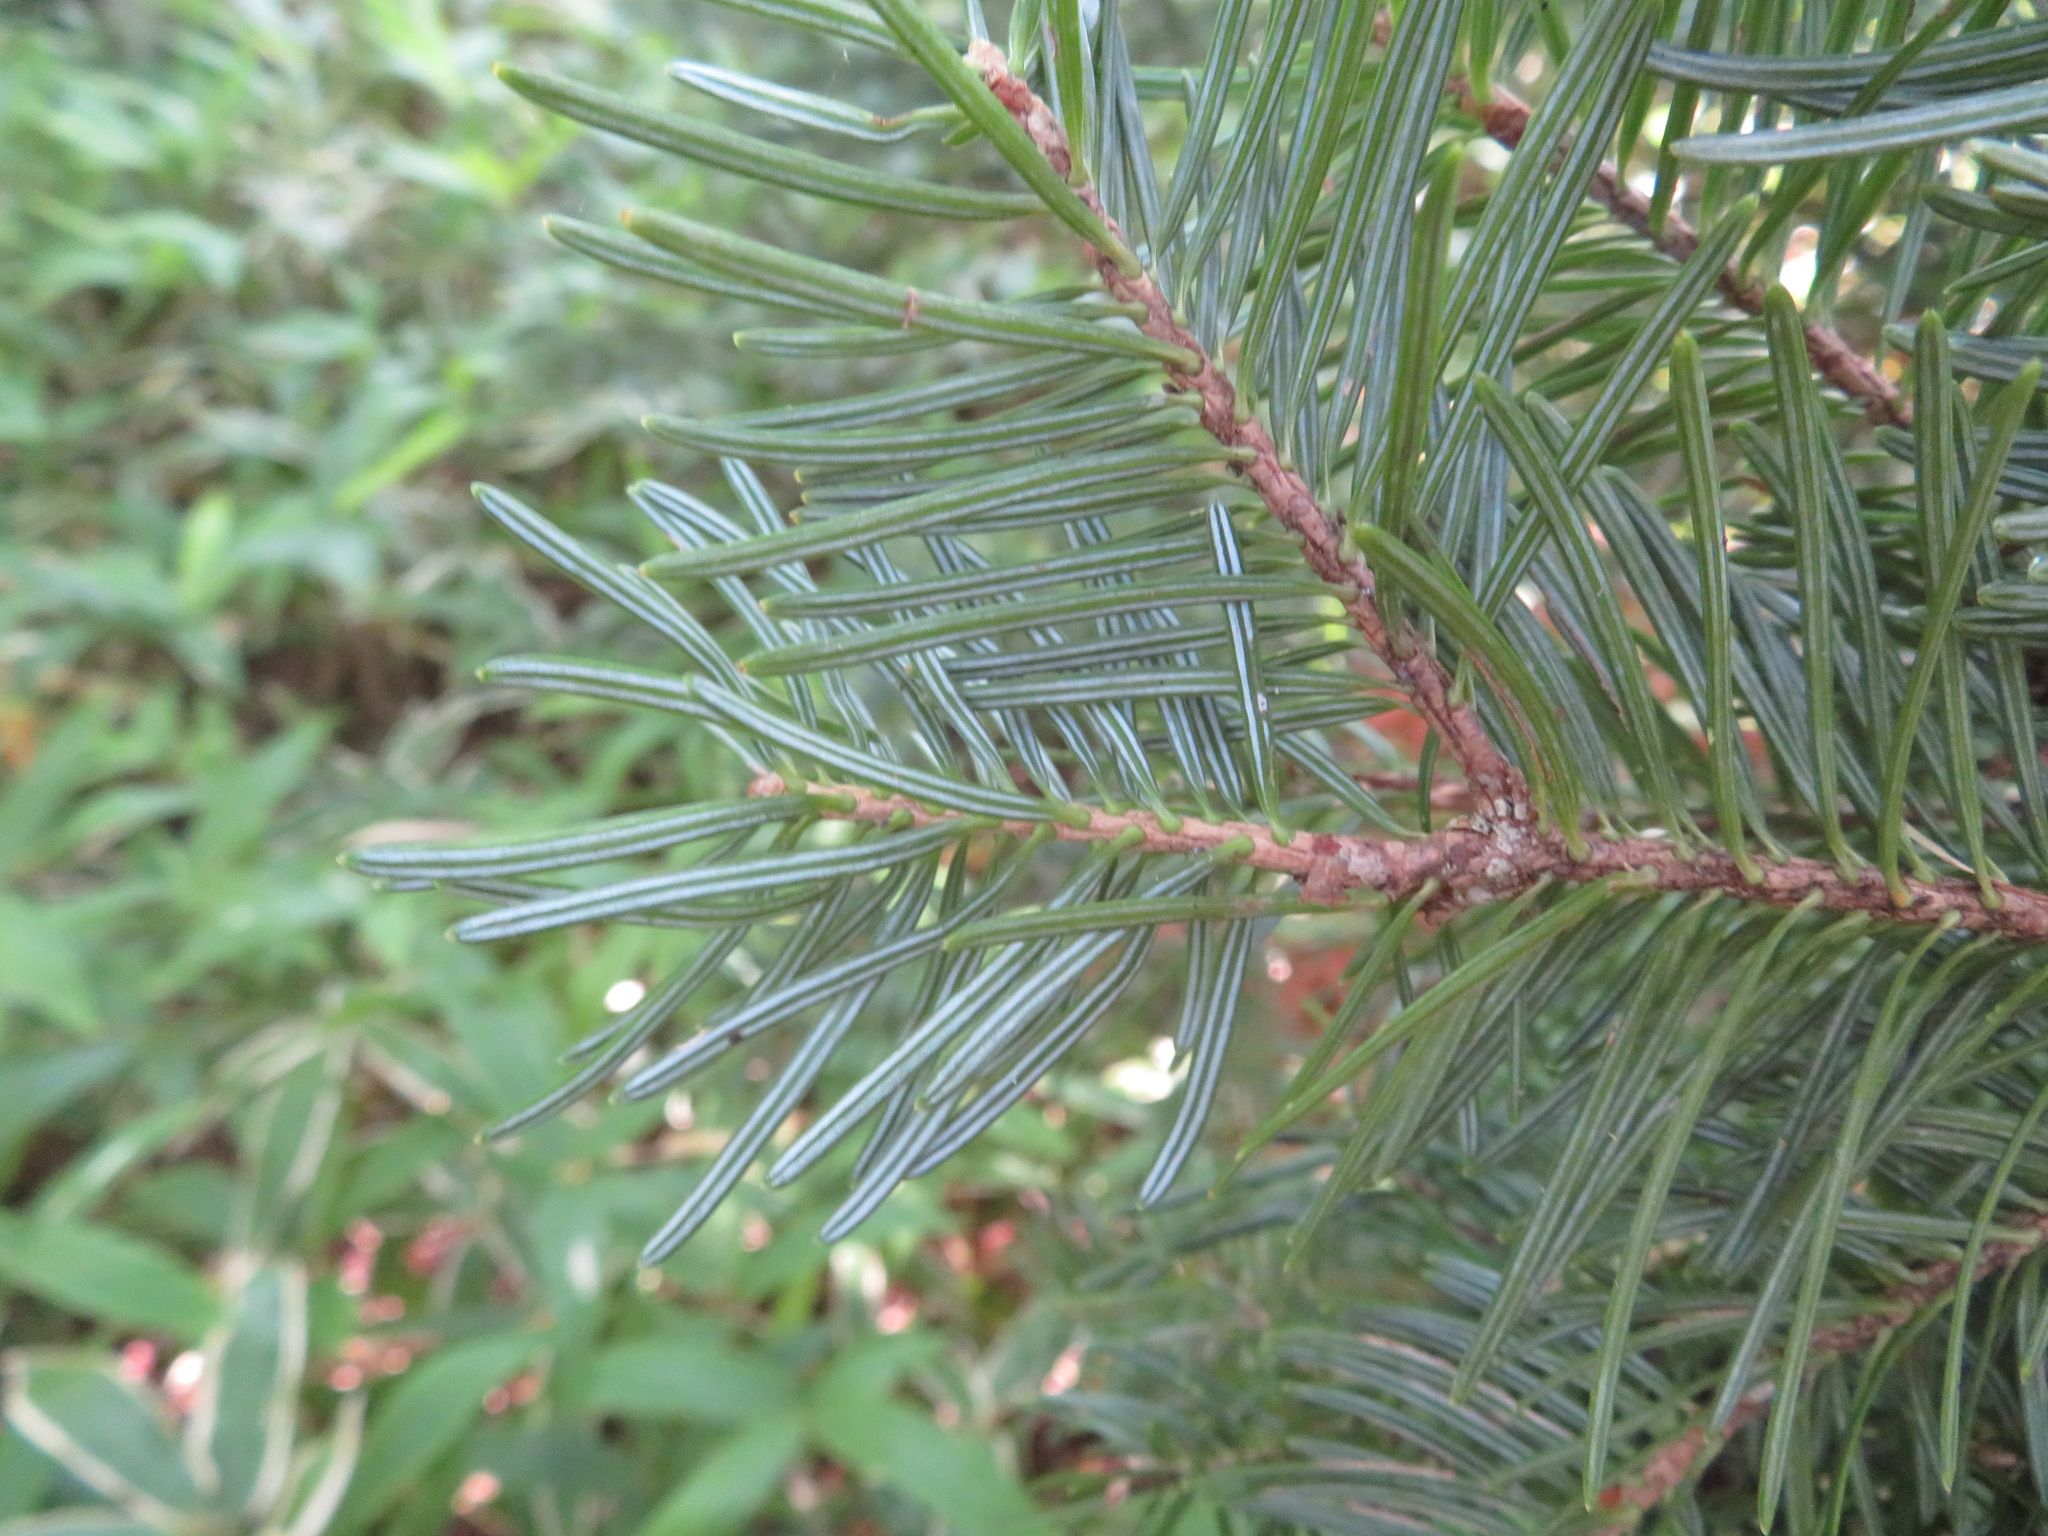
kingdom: Plantae
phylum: Tracheophyta
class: Pinopsida
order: Pinales
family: Pinaceae
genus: Abies
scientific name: Abies homolepis
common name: Nikko fir
